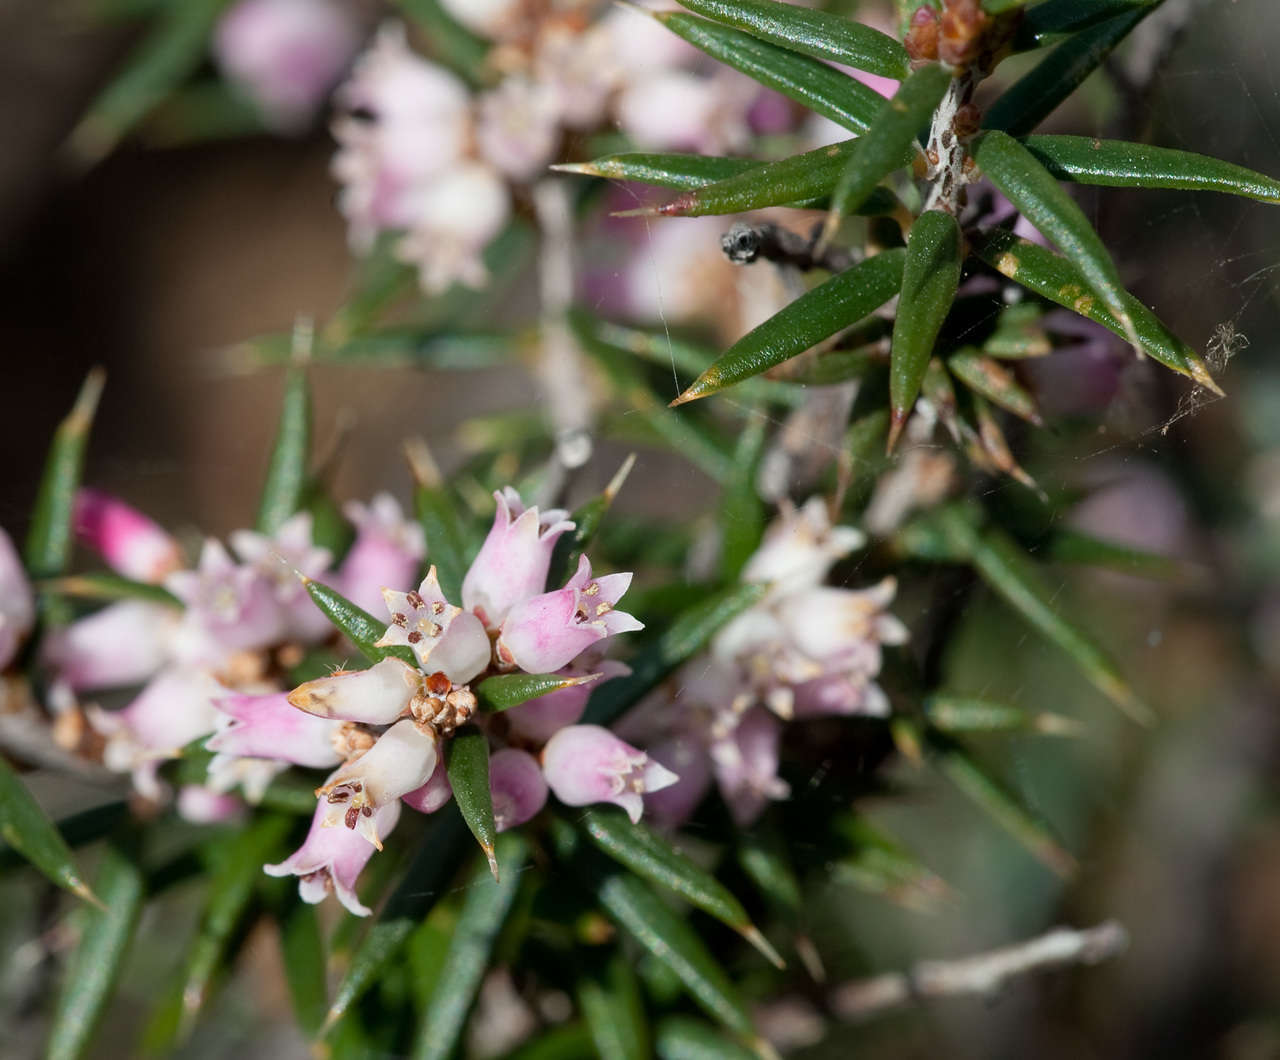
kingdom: Plantae
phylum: Tracheophyta
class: Magnoliopsida
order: Ericales
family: Ericaceae
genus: Lissanthe
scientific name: Lissanthe strigosa
